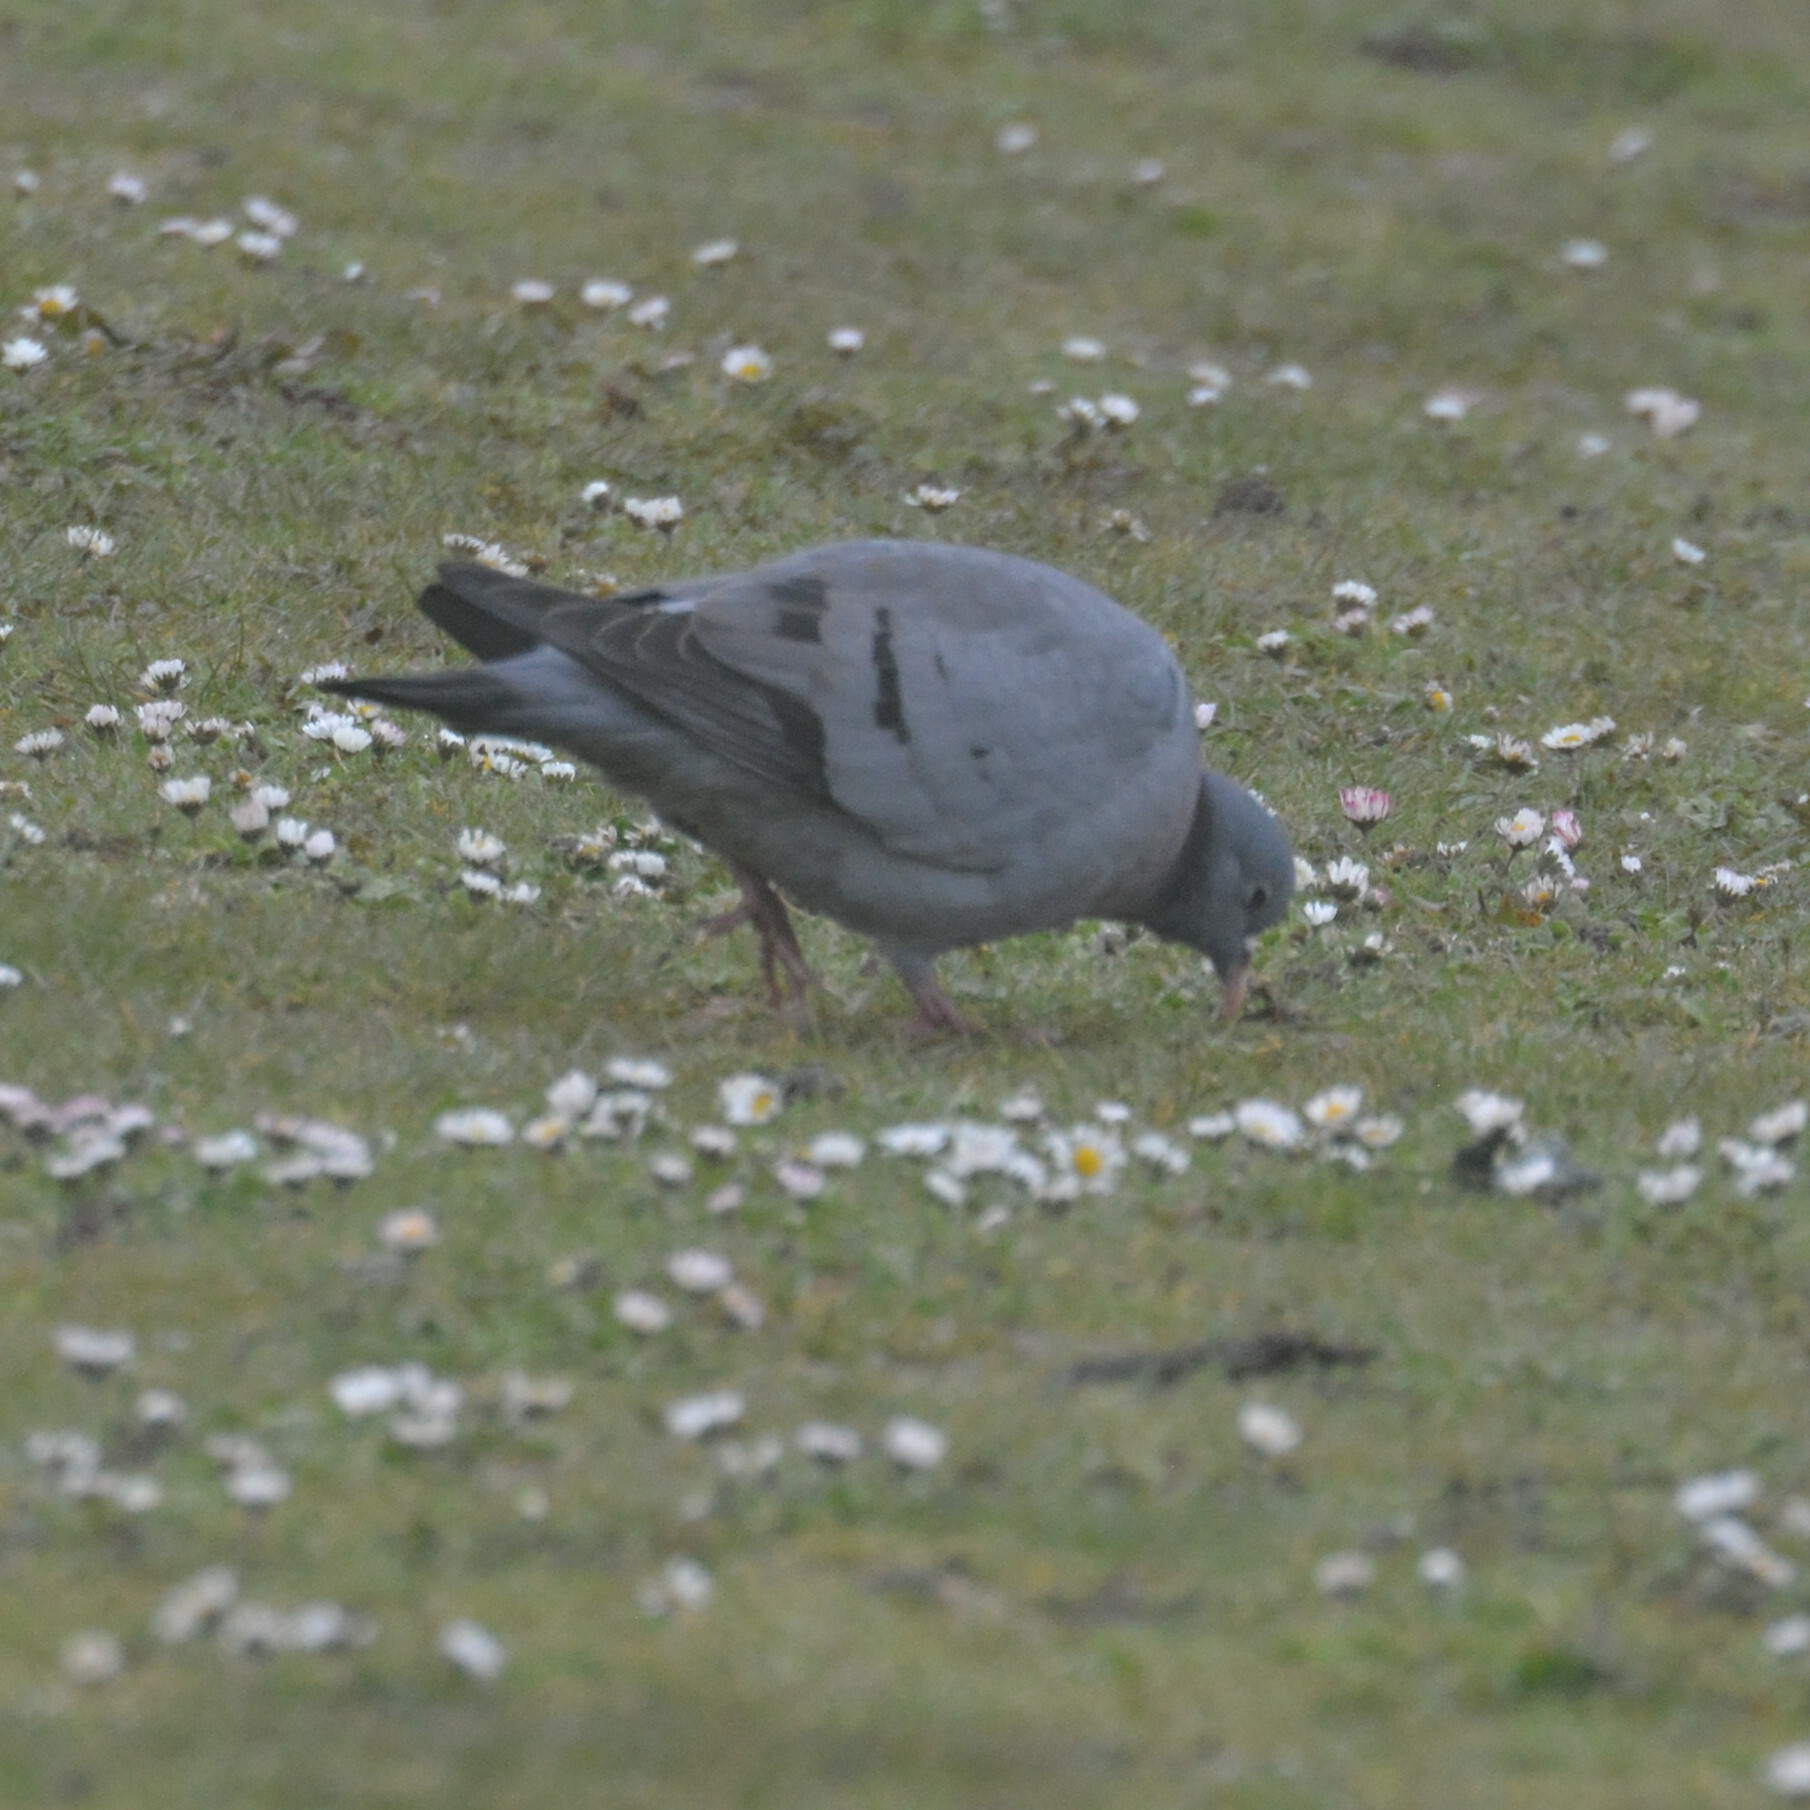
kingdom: Animalia
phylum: Chordata
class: Aves
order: Columbiformes
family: Columbidae
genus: Columba
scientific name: Columba oenas
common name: Stock dove
